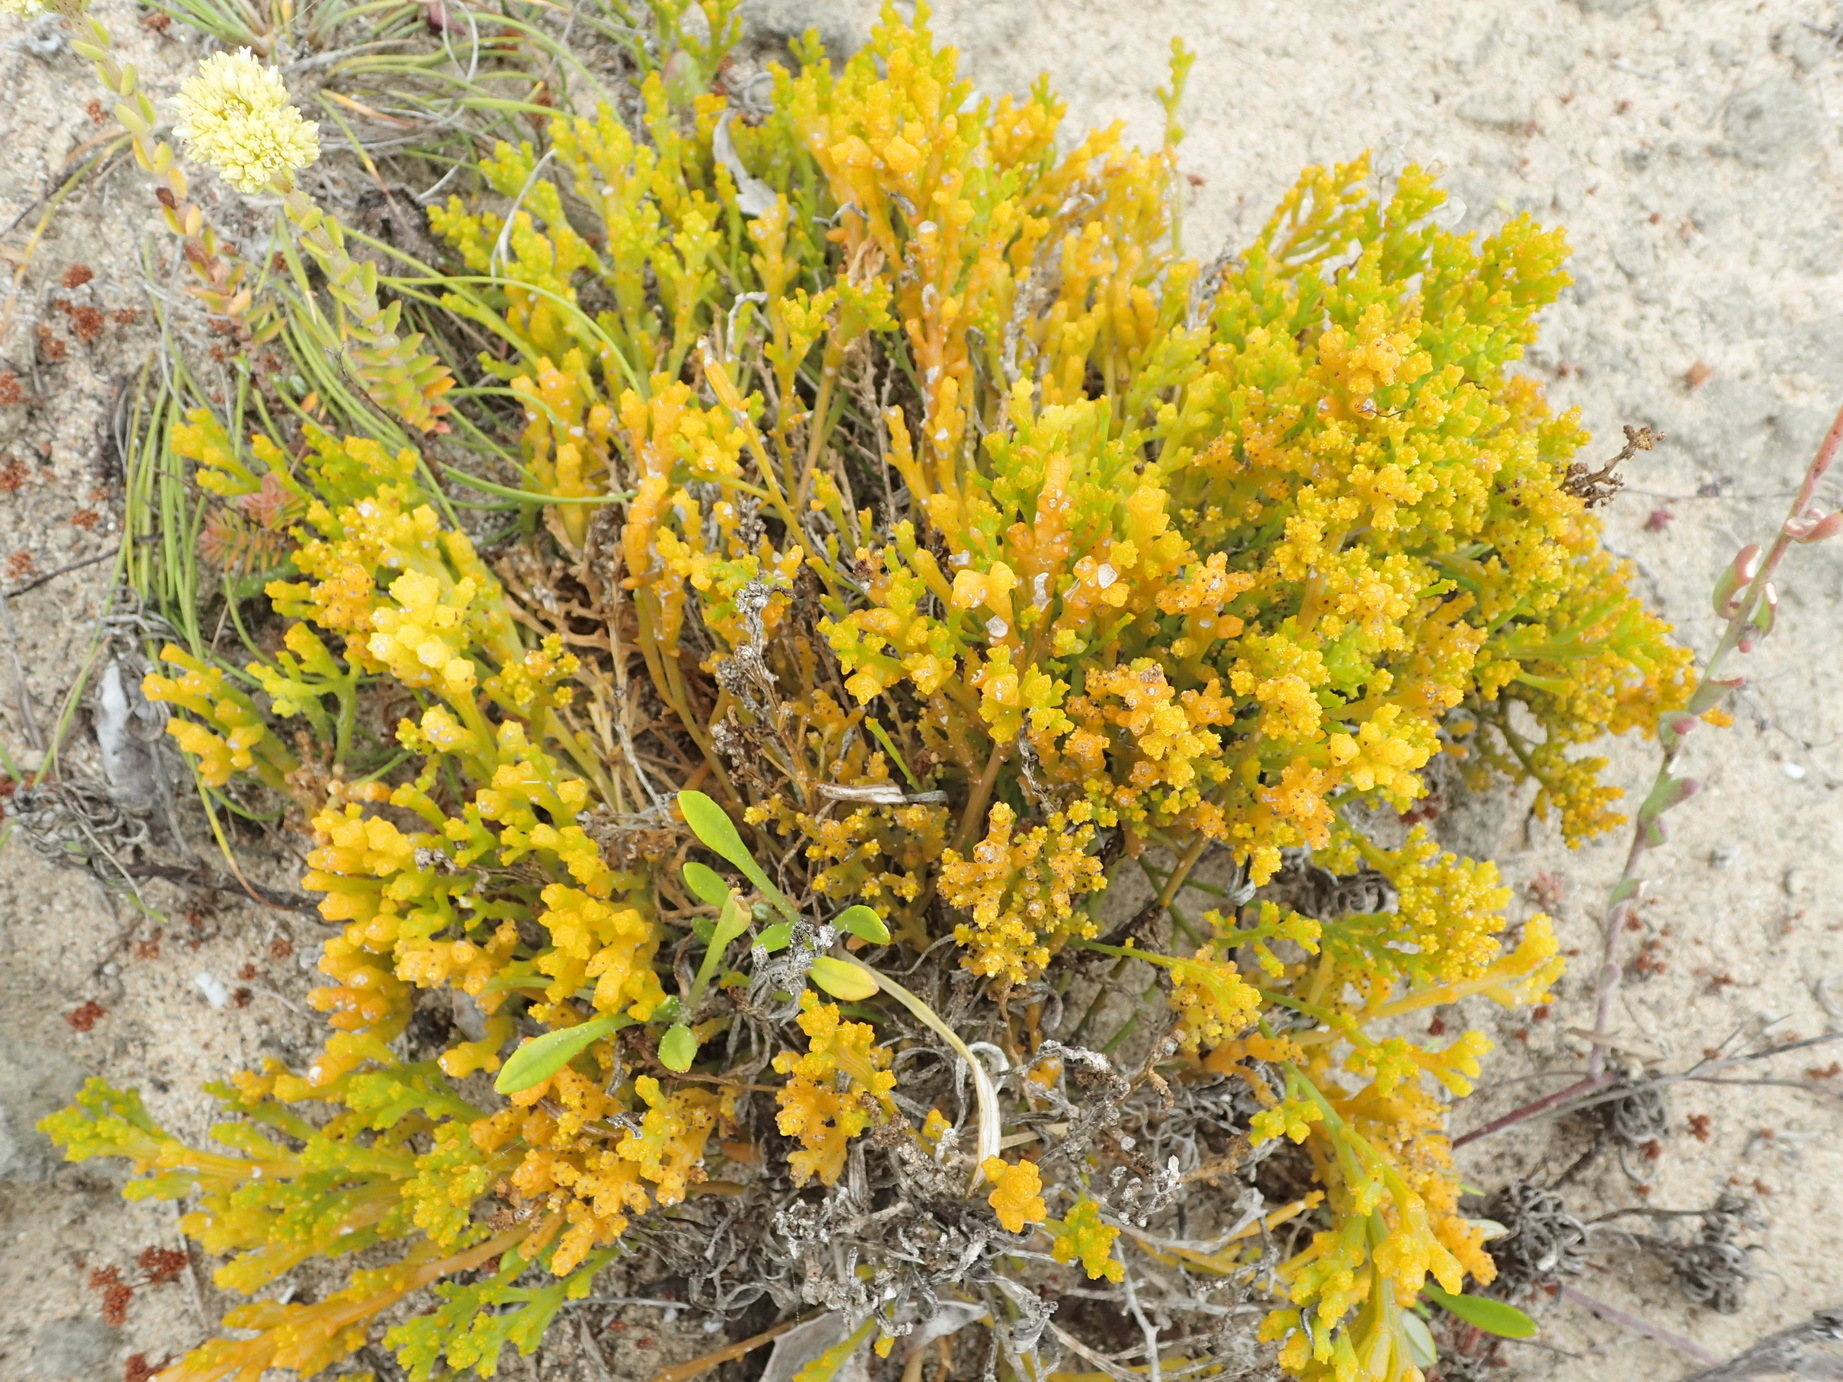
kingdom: Plantae
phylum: Tracheophyta
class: Magnoliopsida
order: Santalales
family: Thesiaceae
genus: Thesium
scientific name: Thesium fragile
